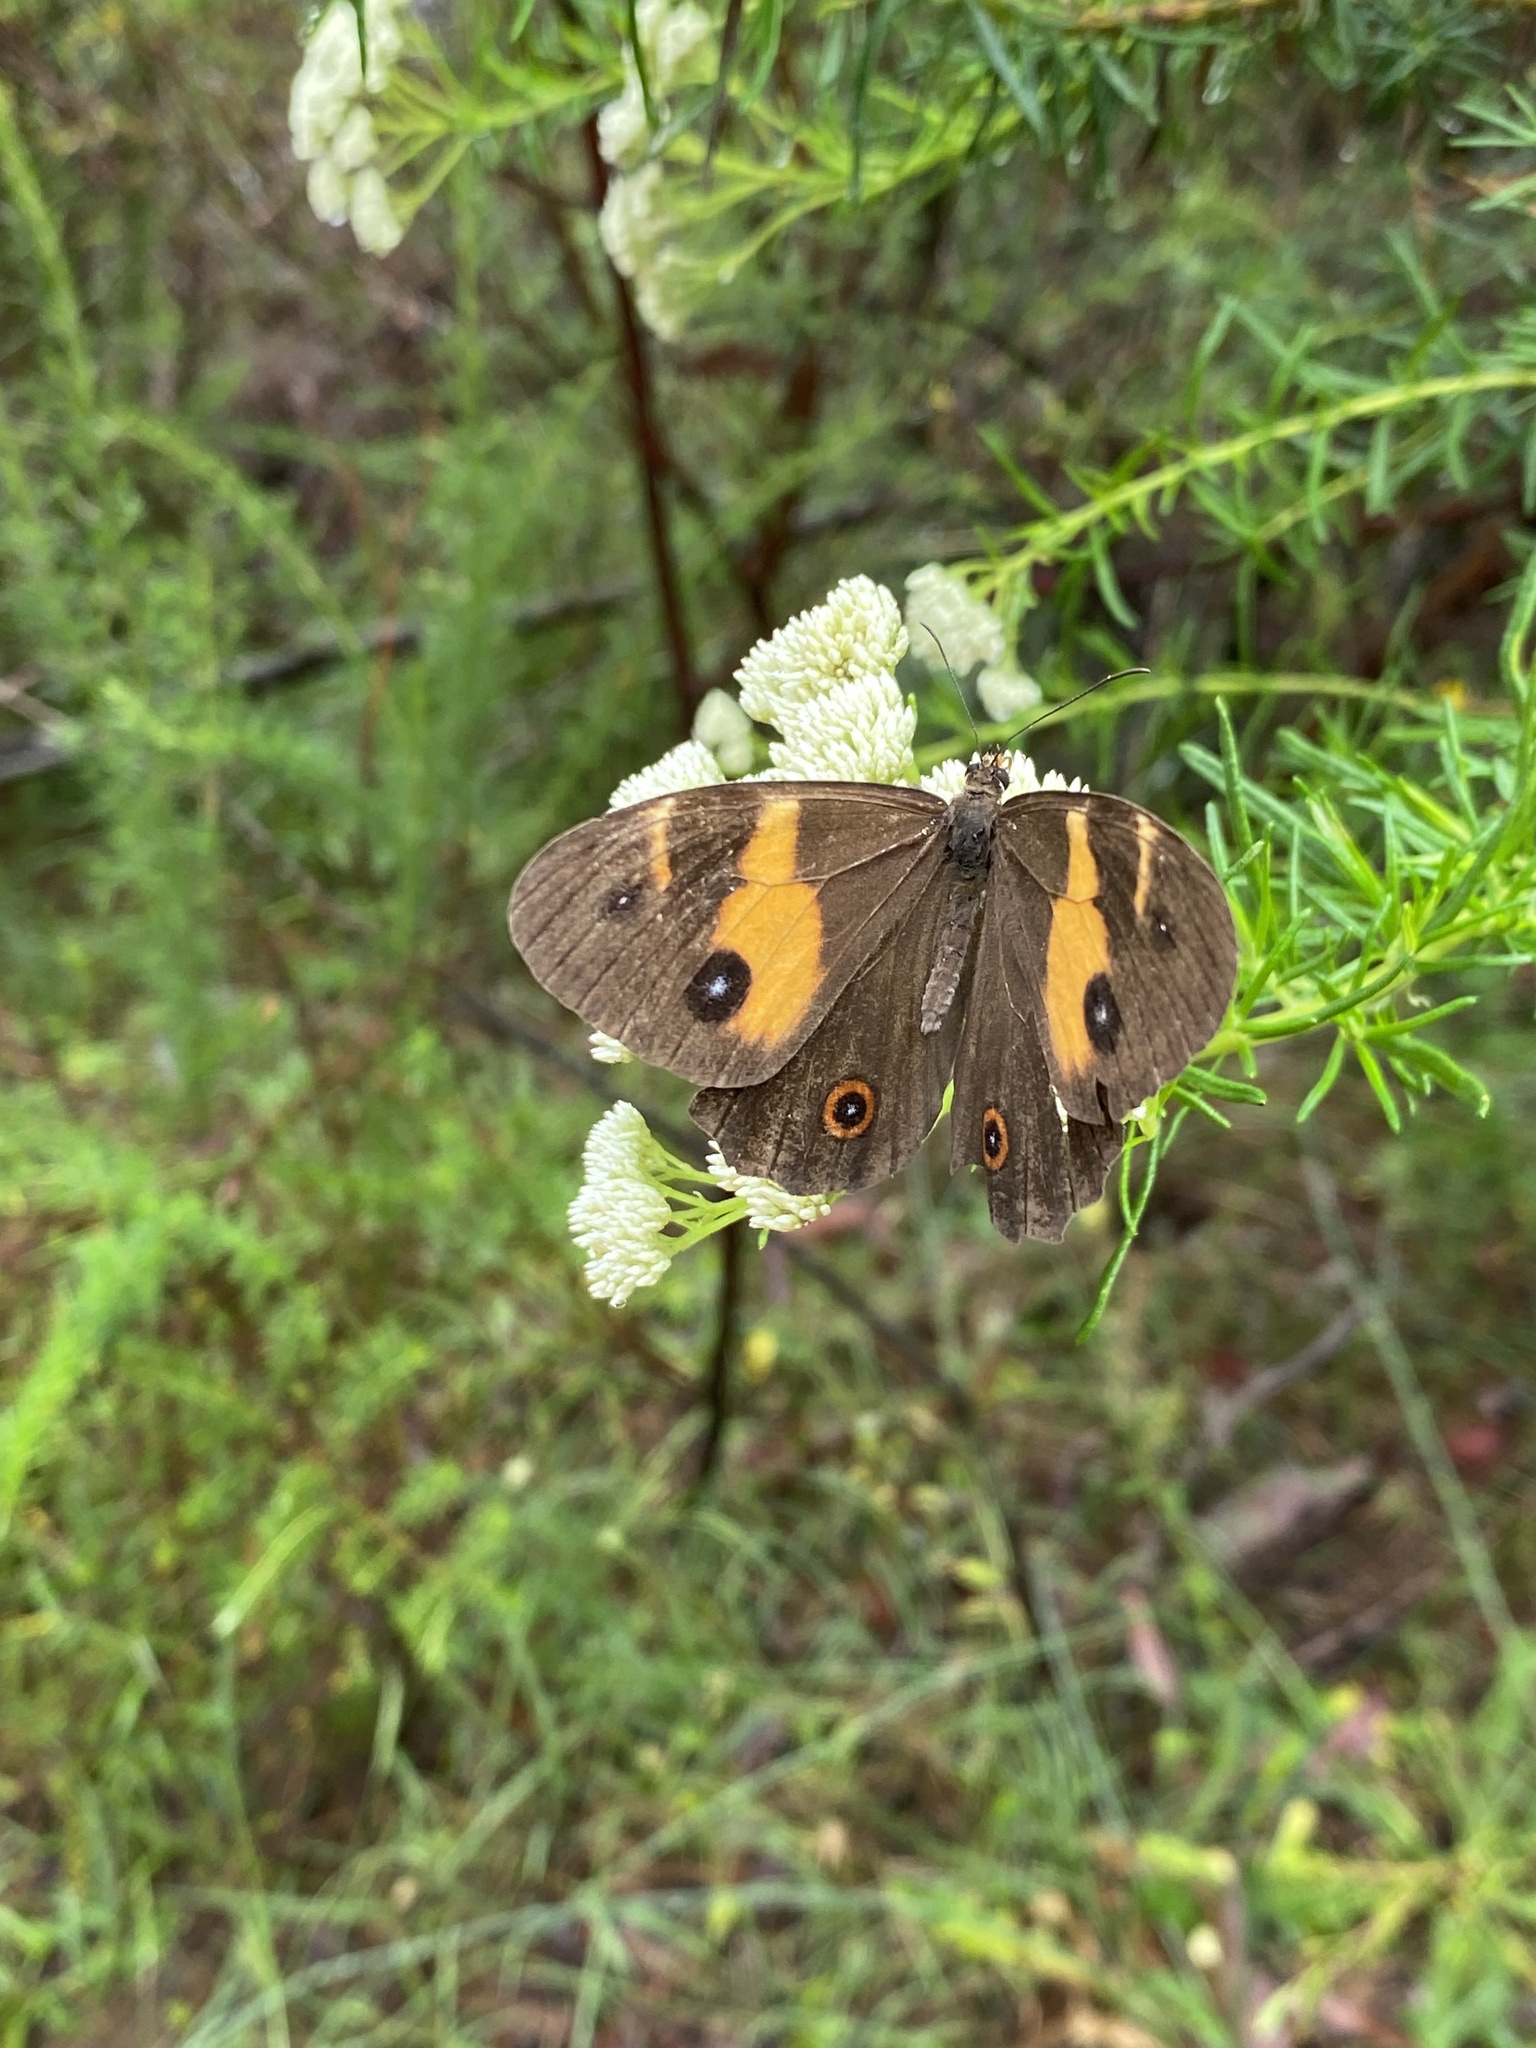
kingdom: Animalia
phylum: Arthropoda
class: Insecta
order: Lepidoptera
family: Nymphalidae
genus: Tisiphone
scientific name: Tisiphone abeona
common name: Swordgrass brown
